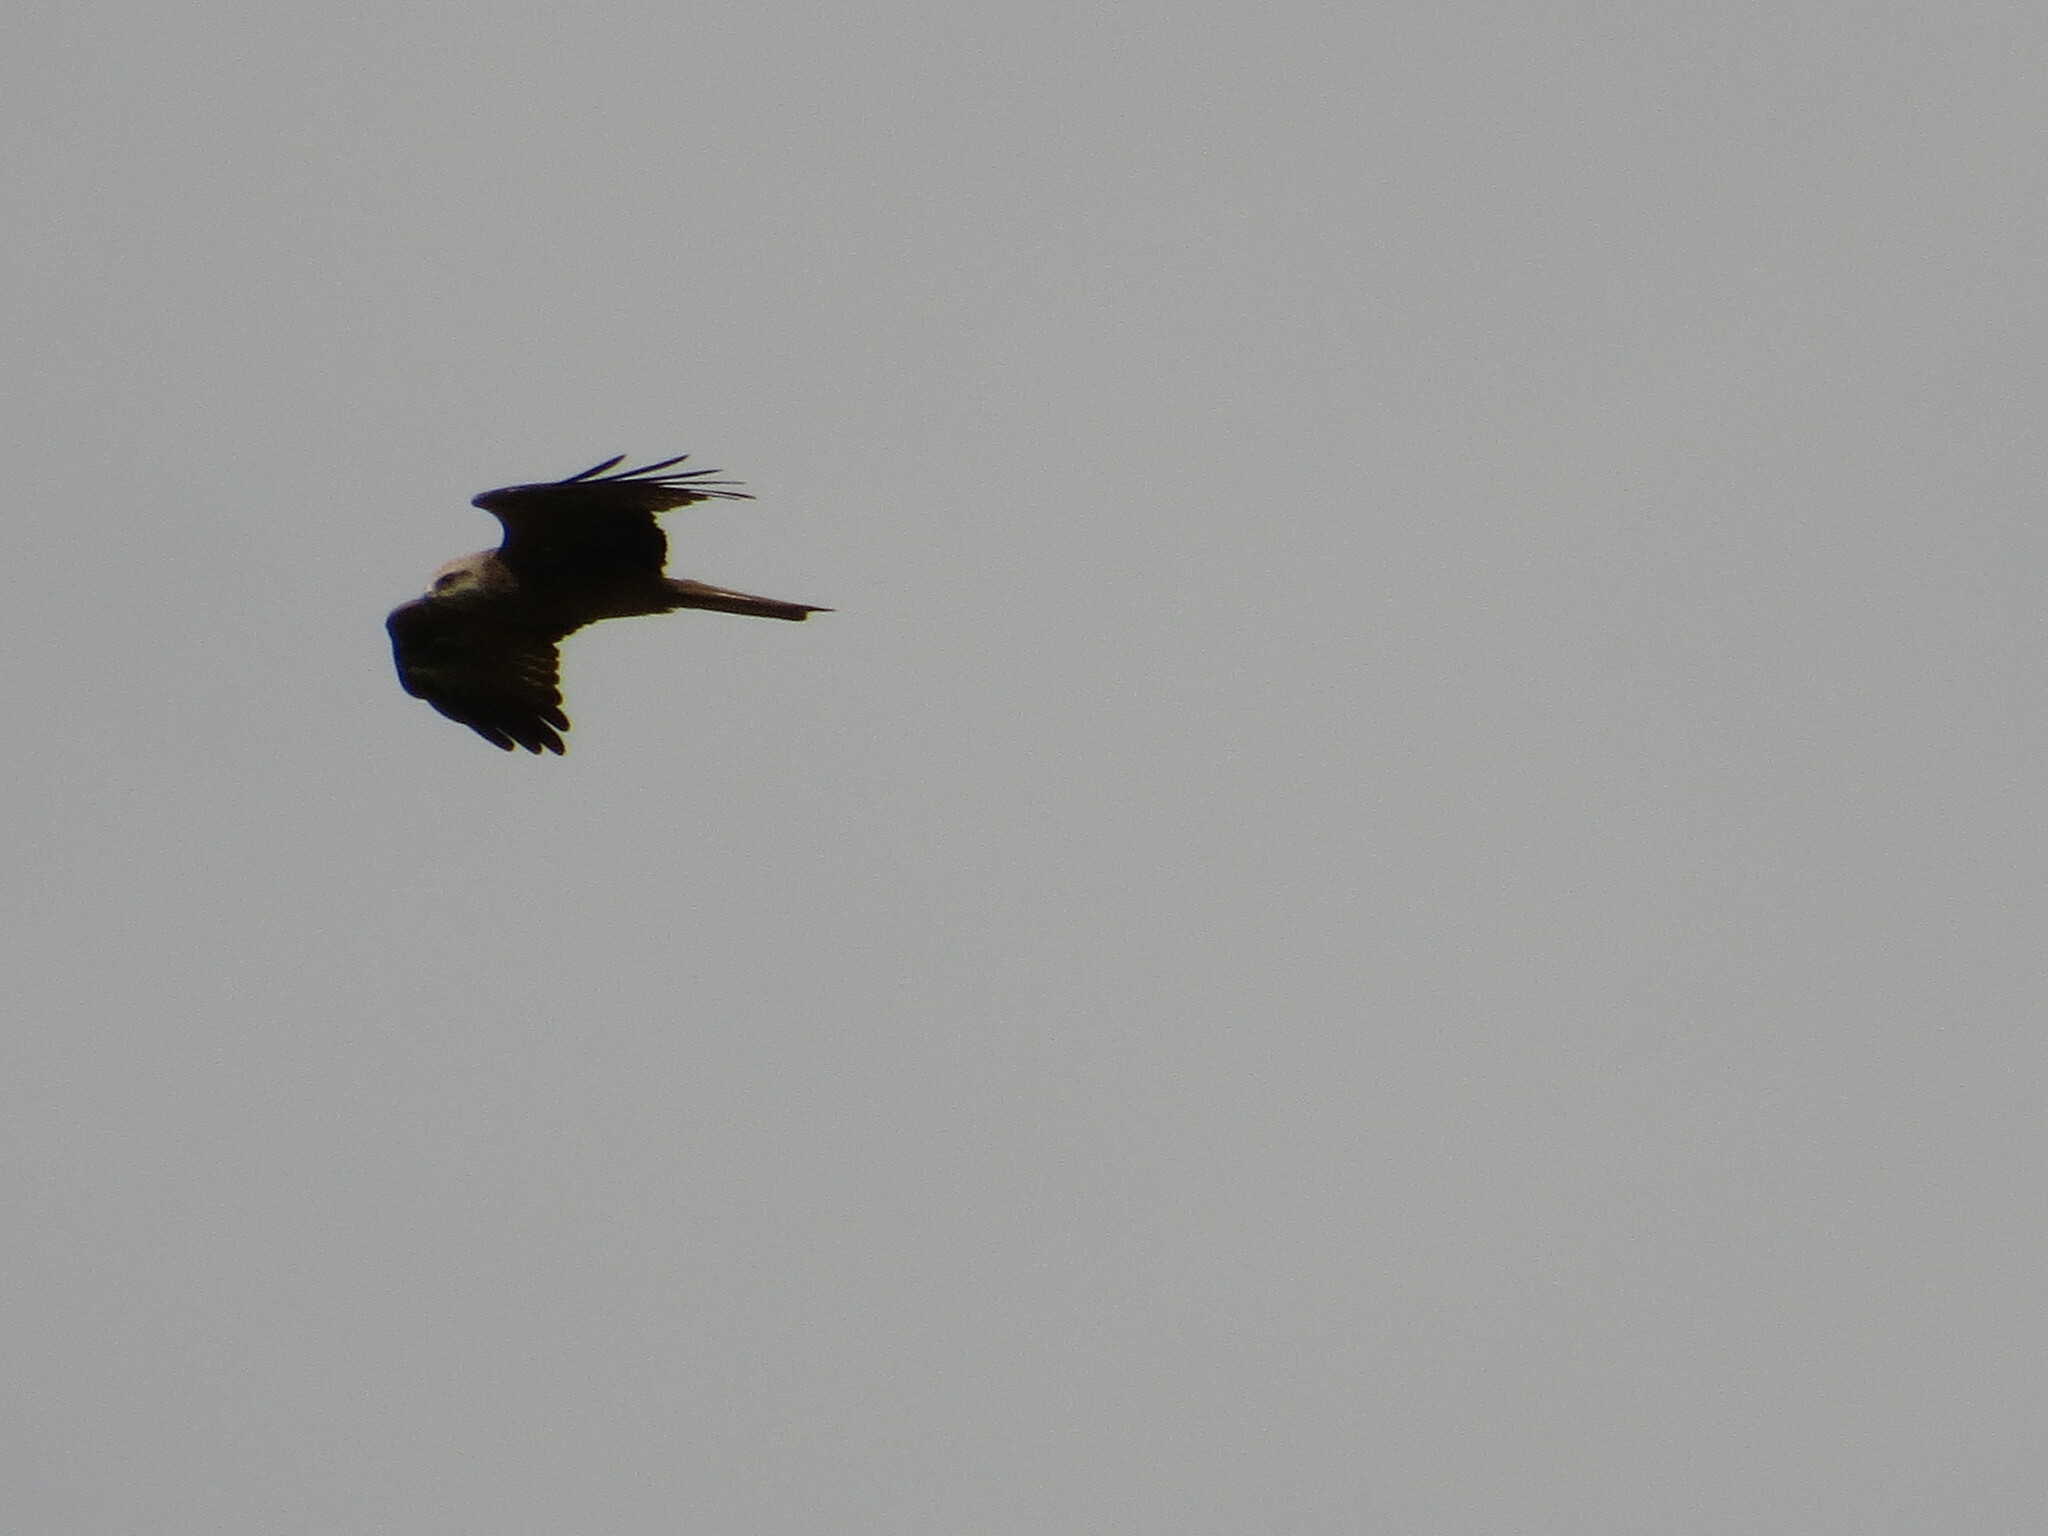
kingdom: Animalia
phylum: Chordata
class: Aves
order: Accipitriformes
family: Accipitridae
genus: Milvus
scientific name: Milvus migrans
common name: Black kite
